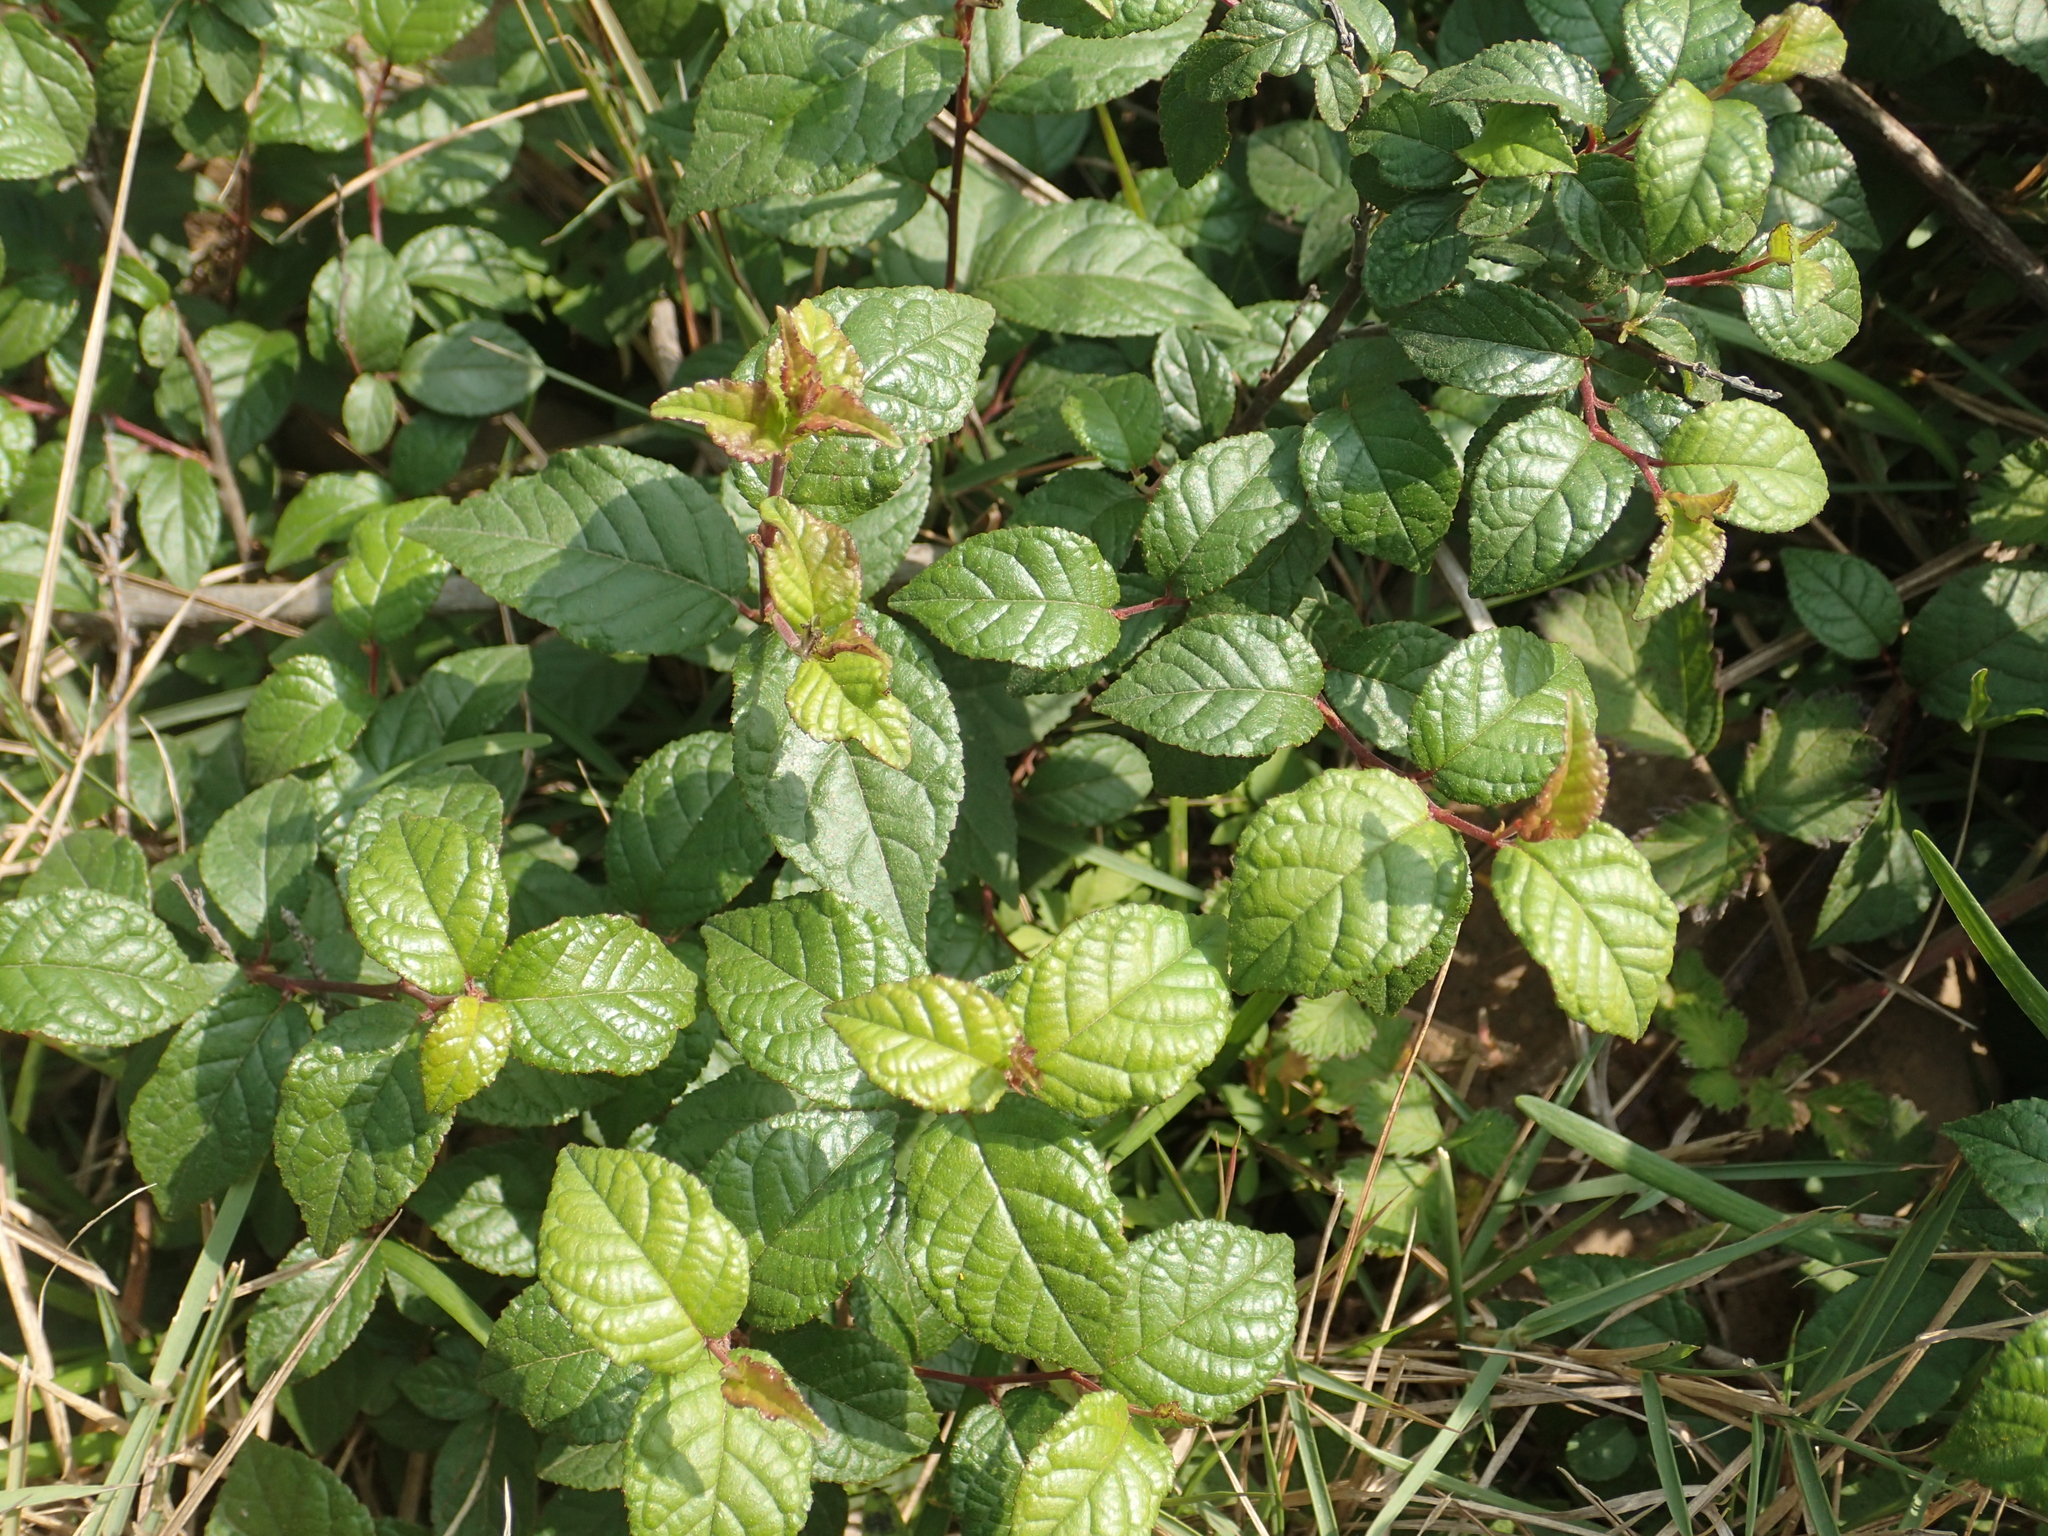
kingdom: Plantae
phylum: Tracheophyta
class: Magnoliopsida
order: Rosales
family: Rosaceae
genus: Prunus
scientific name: Prunus pogonostyla
